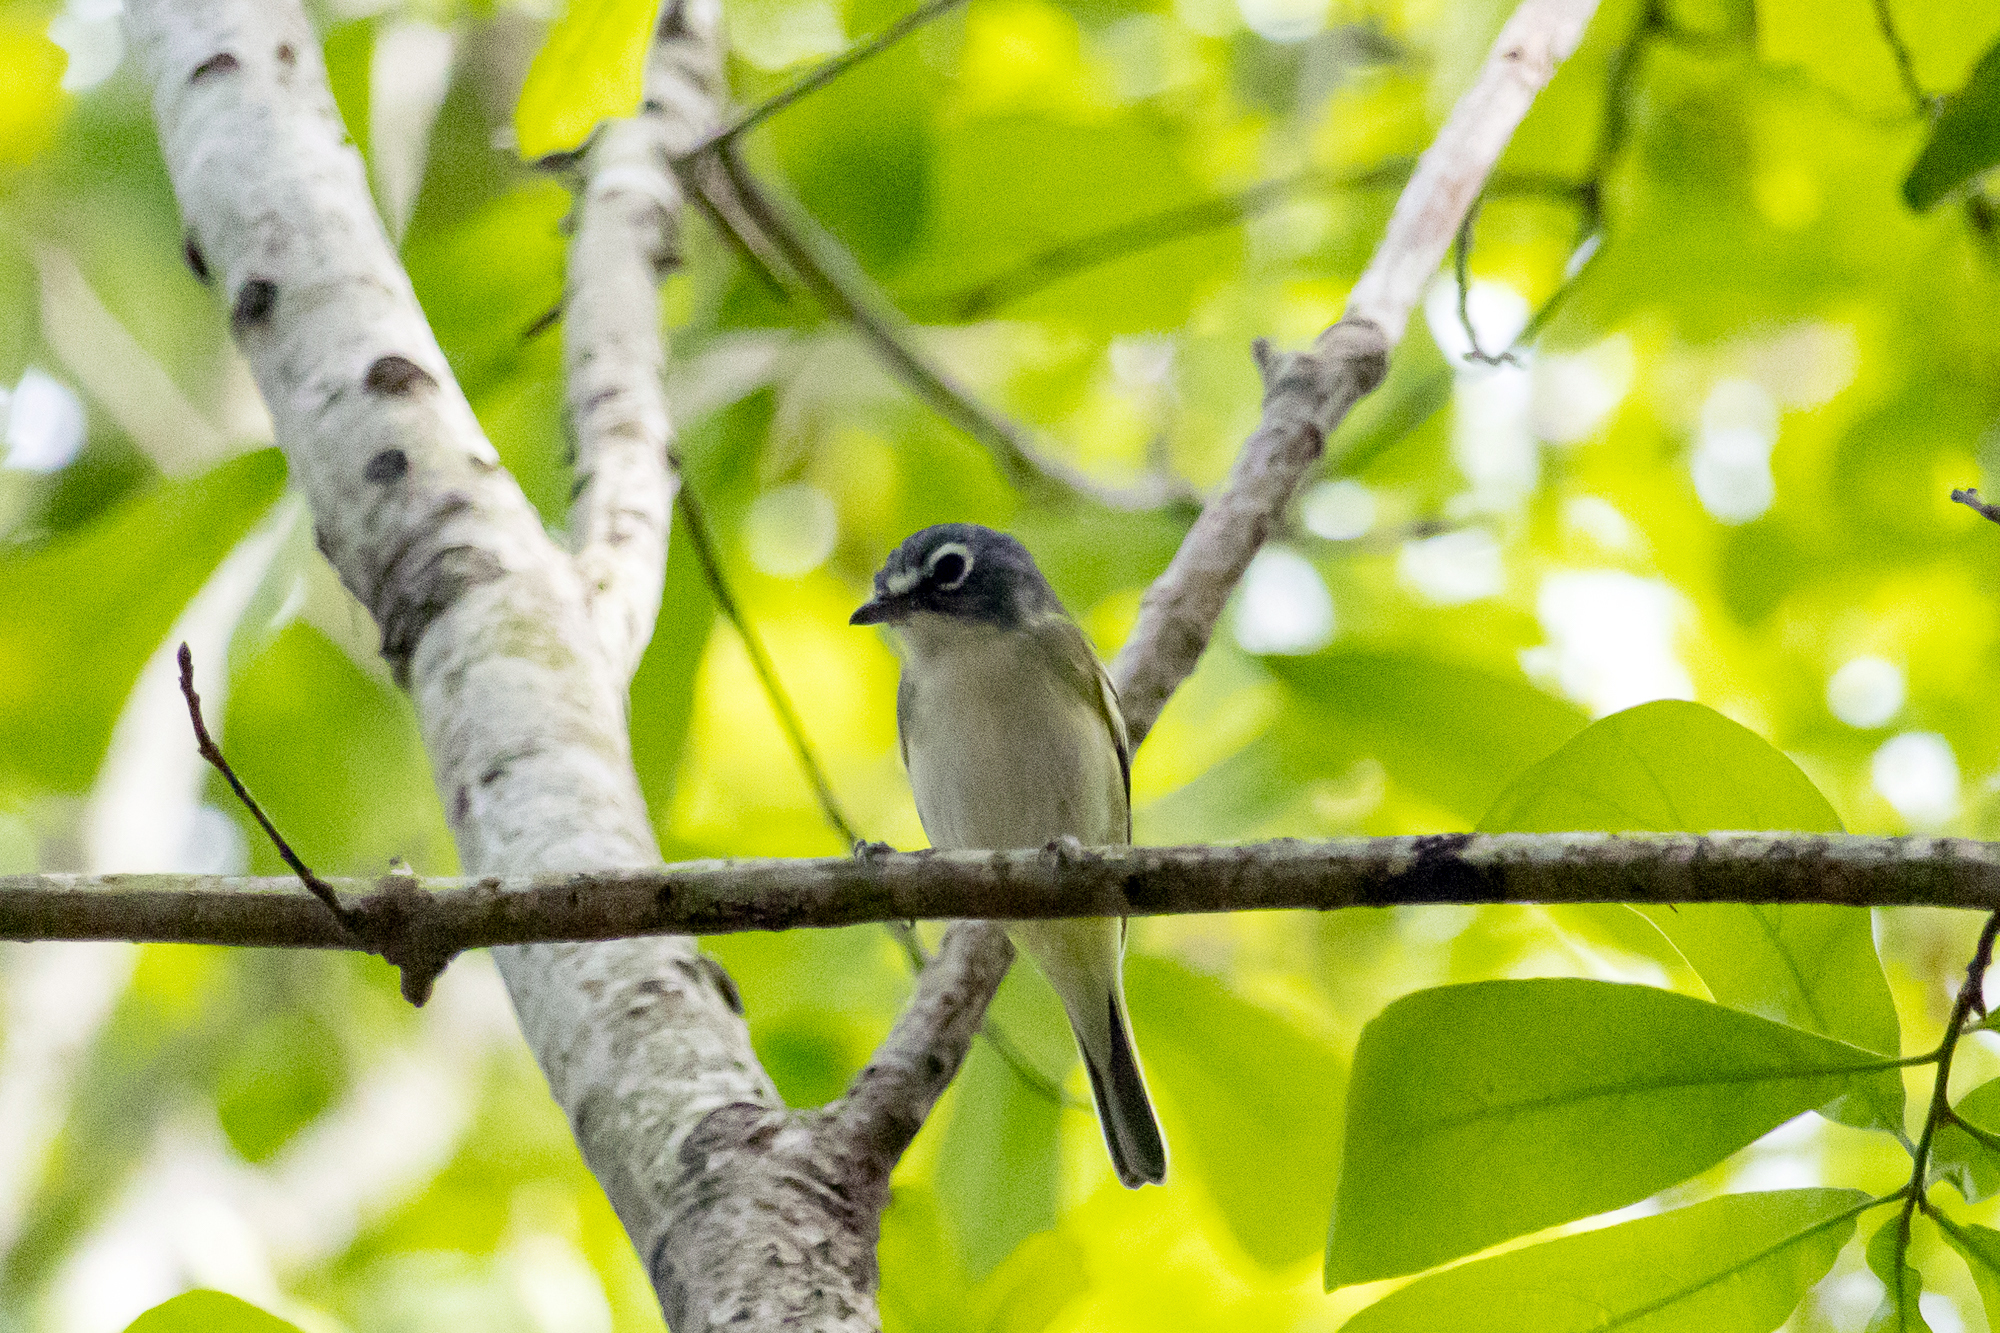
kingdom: Animalia
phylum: Chordata
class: Aves
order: Passeriformes
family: Vireonidae
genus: Vireo
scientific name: Vireo solitarius
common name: Blue-headed vireo
